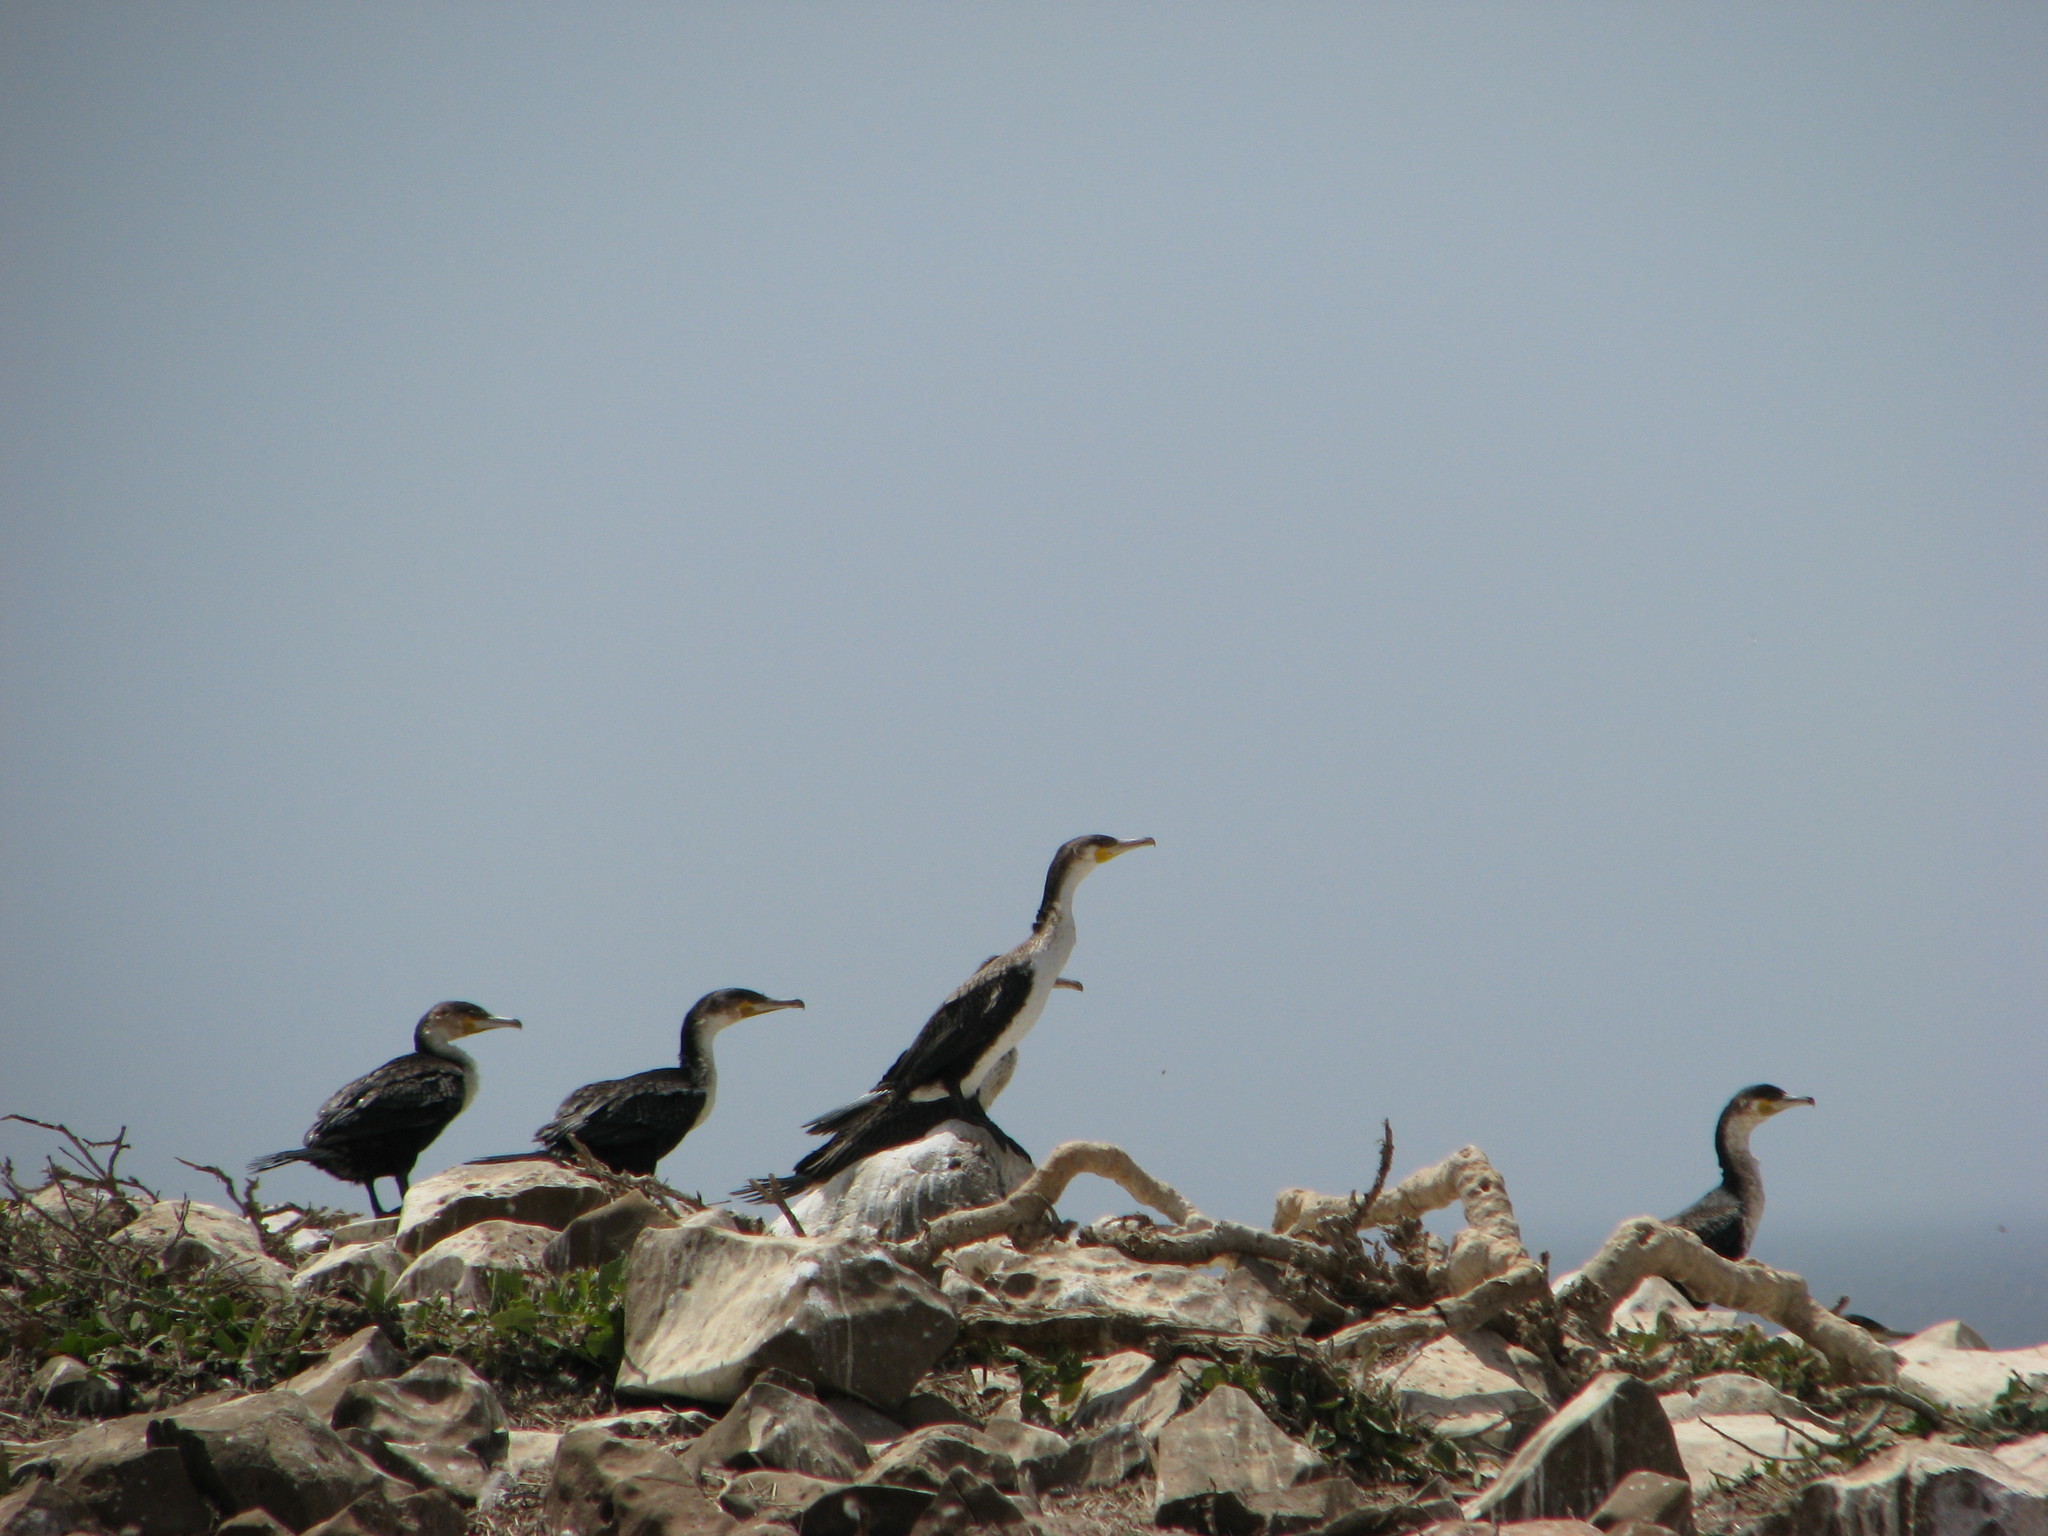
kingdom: Animalia
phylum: Chordata
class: Aves
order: Suliformes
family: Phalacrocoracidae
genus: Phalacrocorax
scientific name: Phalacrocorax carbo
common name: Great cormorant
